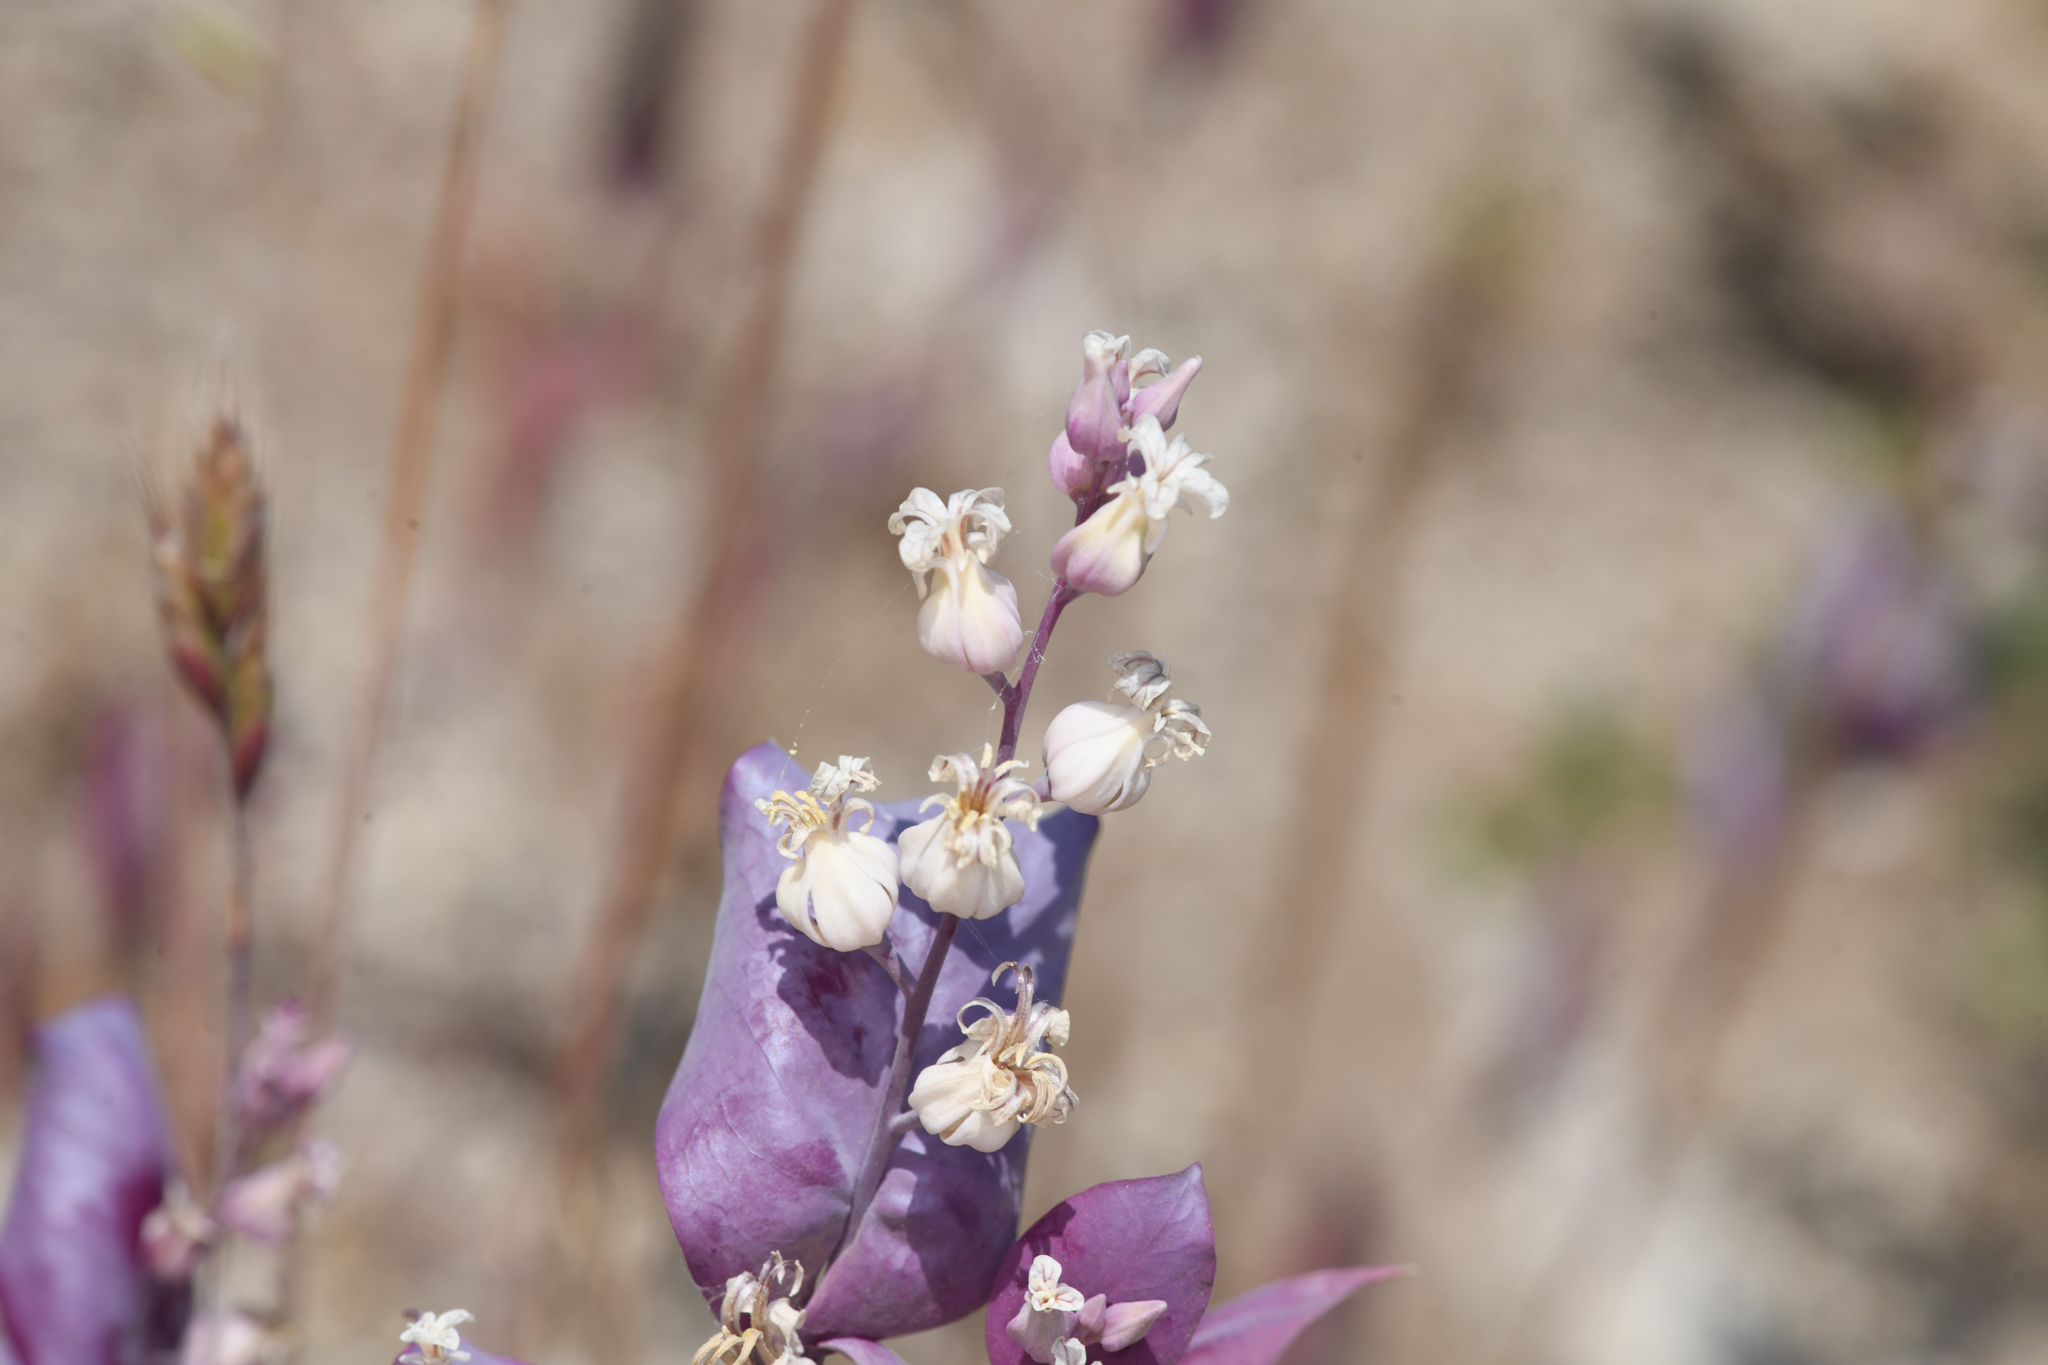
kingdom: Plantae
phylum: Tracheophyta
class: Magnoliopsida
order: Brassicales
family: Brassicaceae
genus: Streptanthus
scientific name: Streptanthus farnsworthianus
